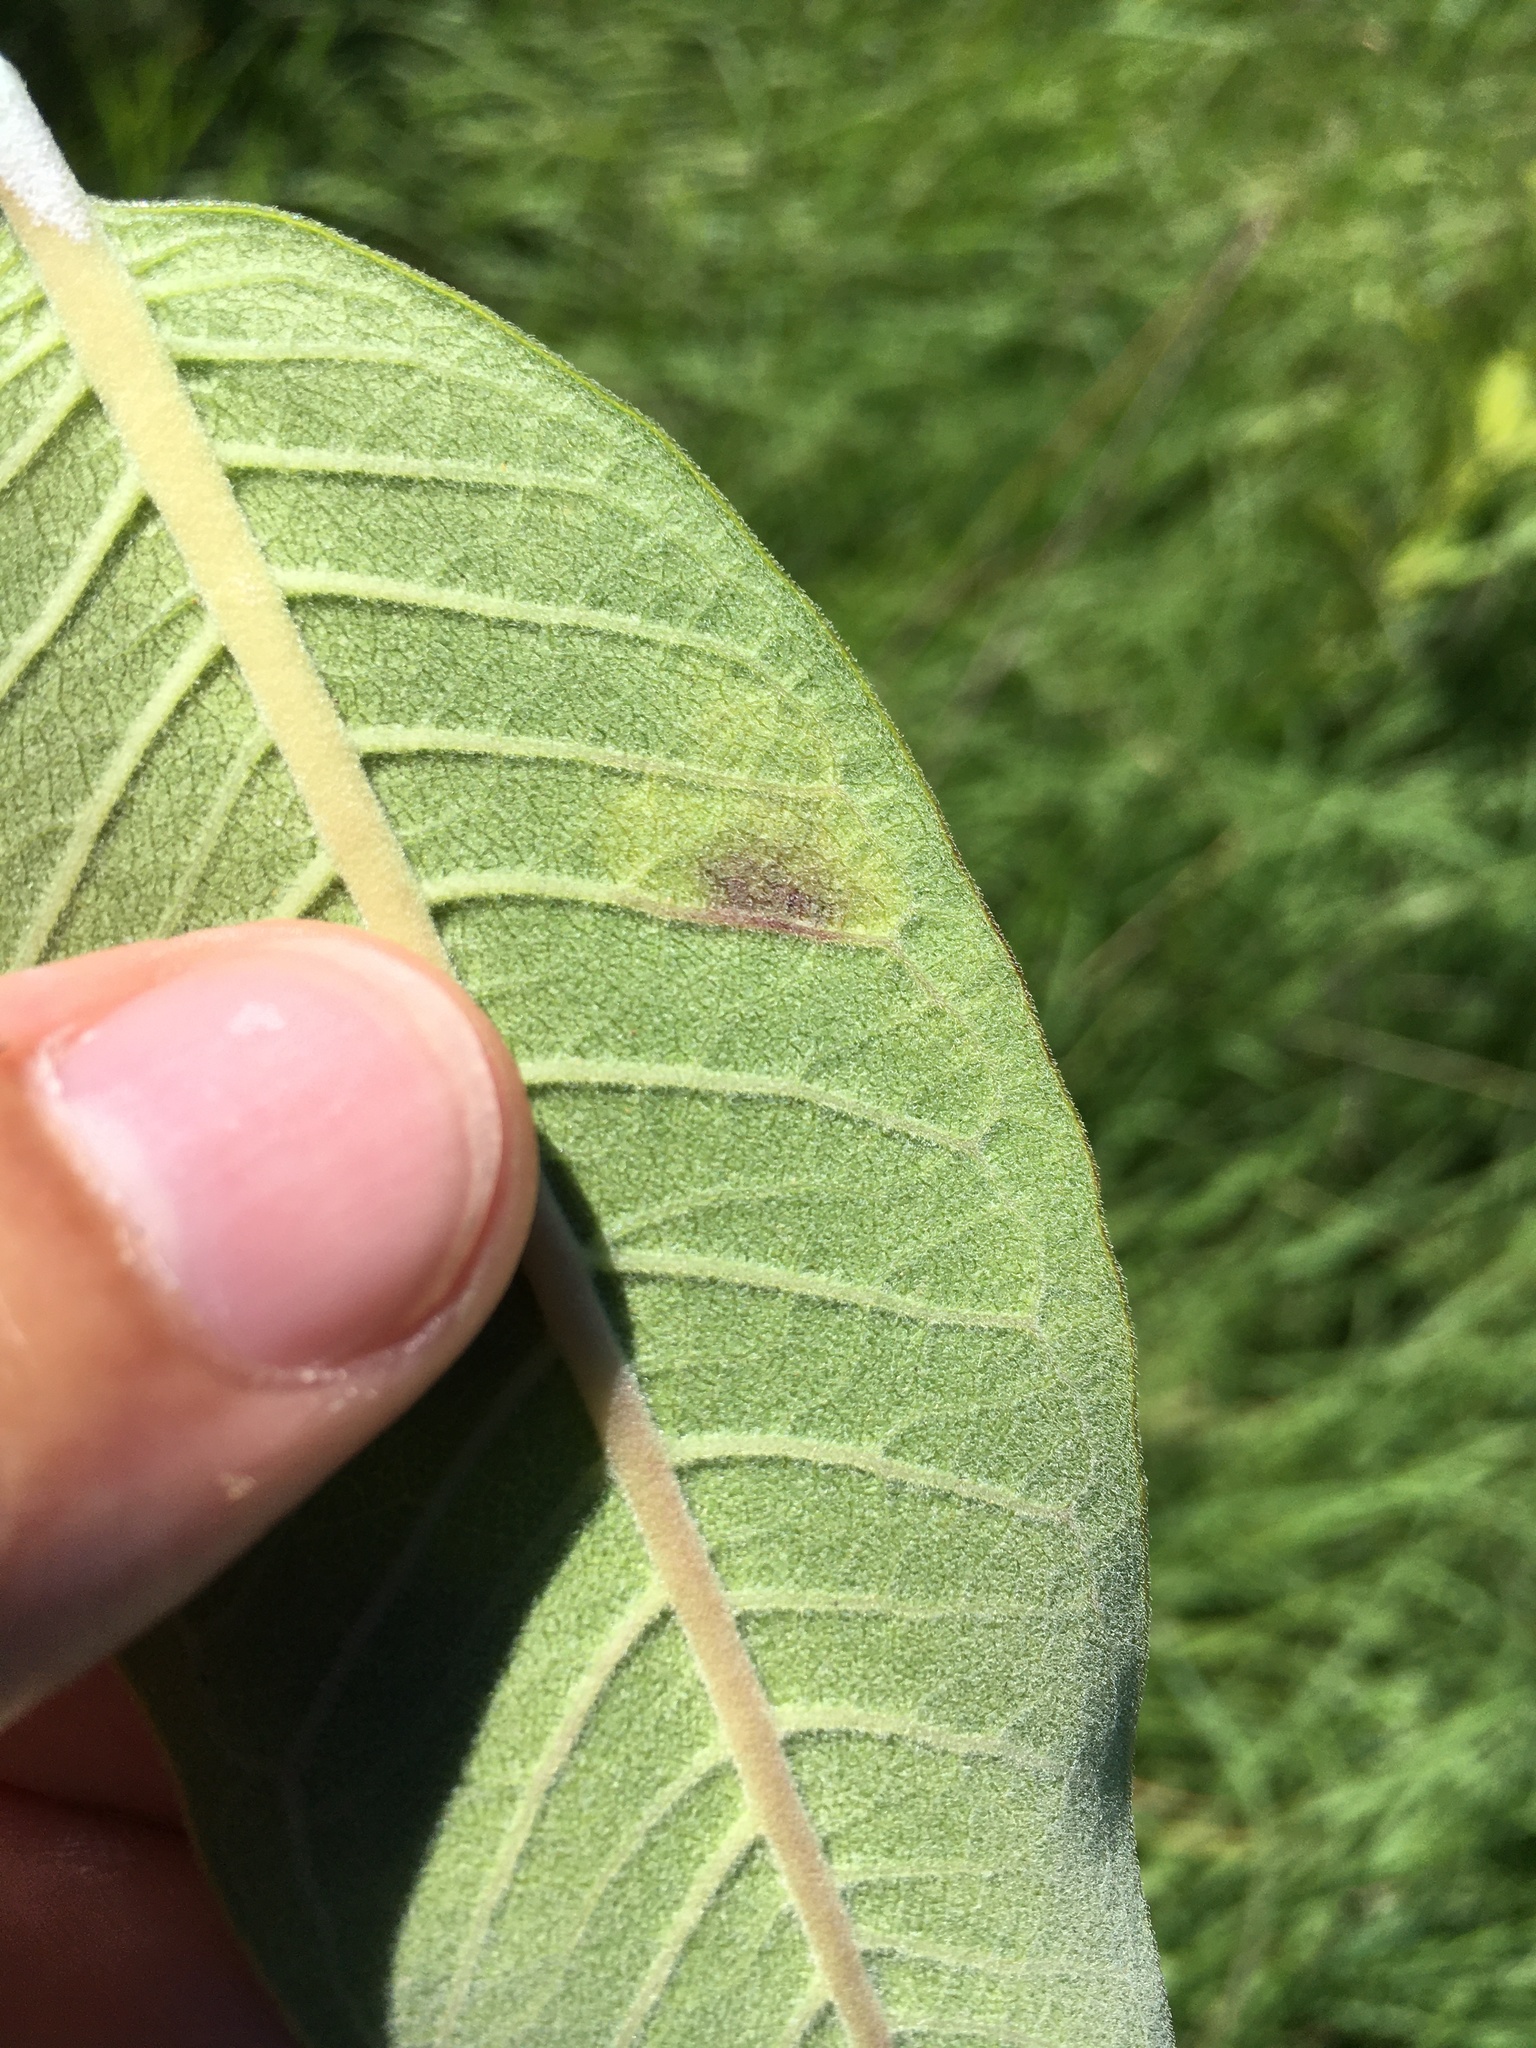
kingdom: Animalia
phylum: Arthropoda
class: Insecta
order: Diptera
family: Agromyzidae
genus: Liriomyza
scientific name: Liriomyza asclepiadis
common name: Milkweed leaf-miner fly
